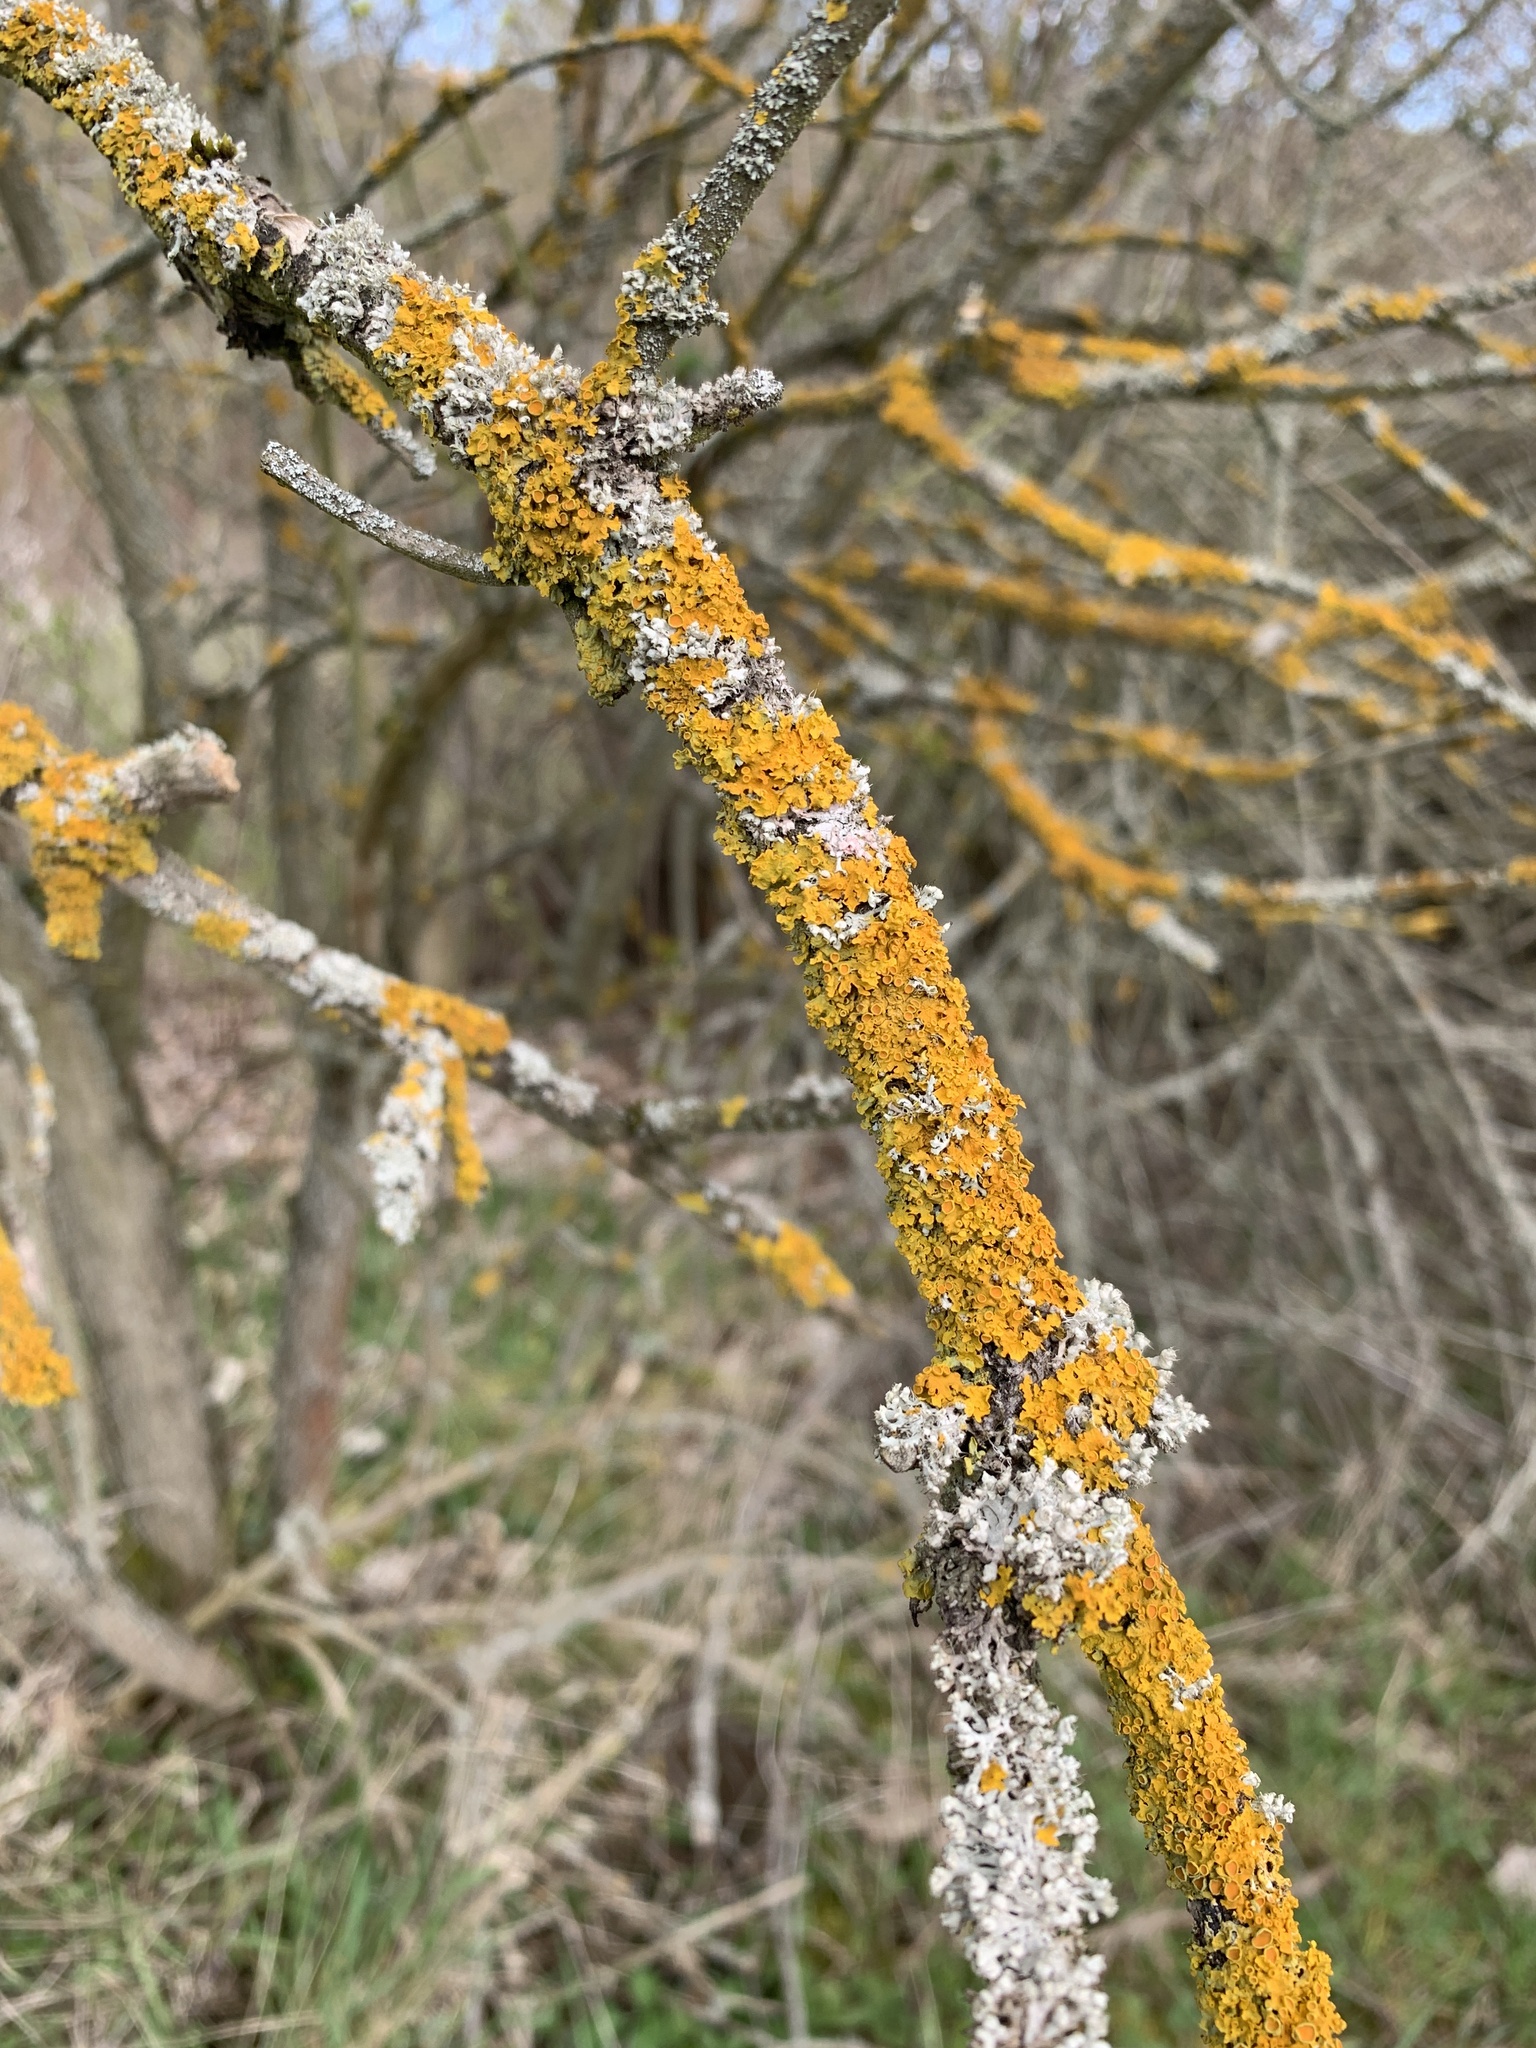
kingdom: Fungi
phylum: Ascomycota
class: Lecanoromycetes
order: Teloschistales
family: Teloschistaceae
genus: Xanthoria
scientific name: Xanthoria parietina
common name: Common orange lichen
